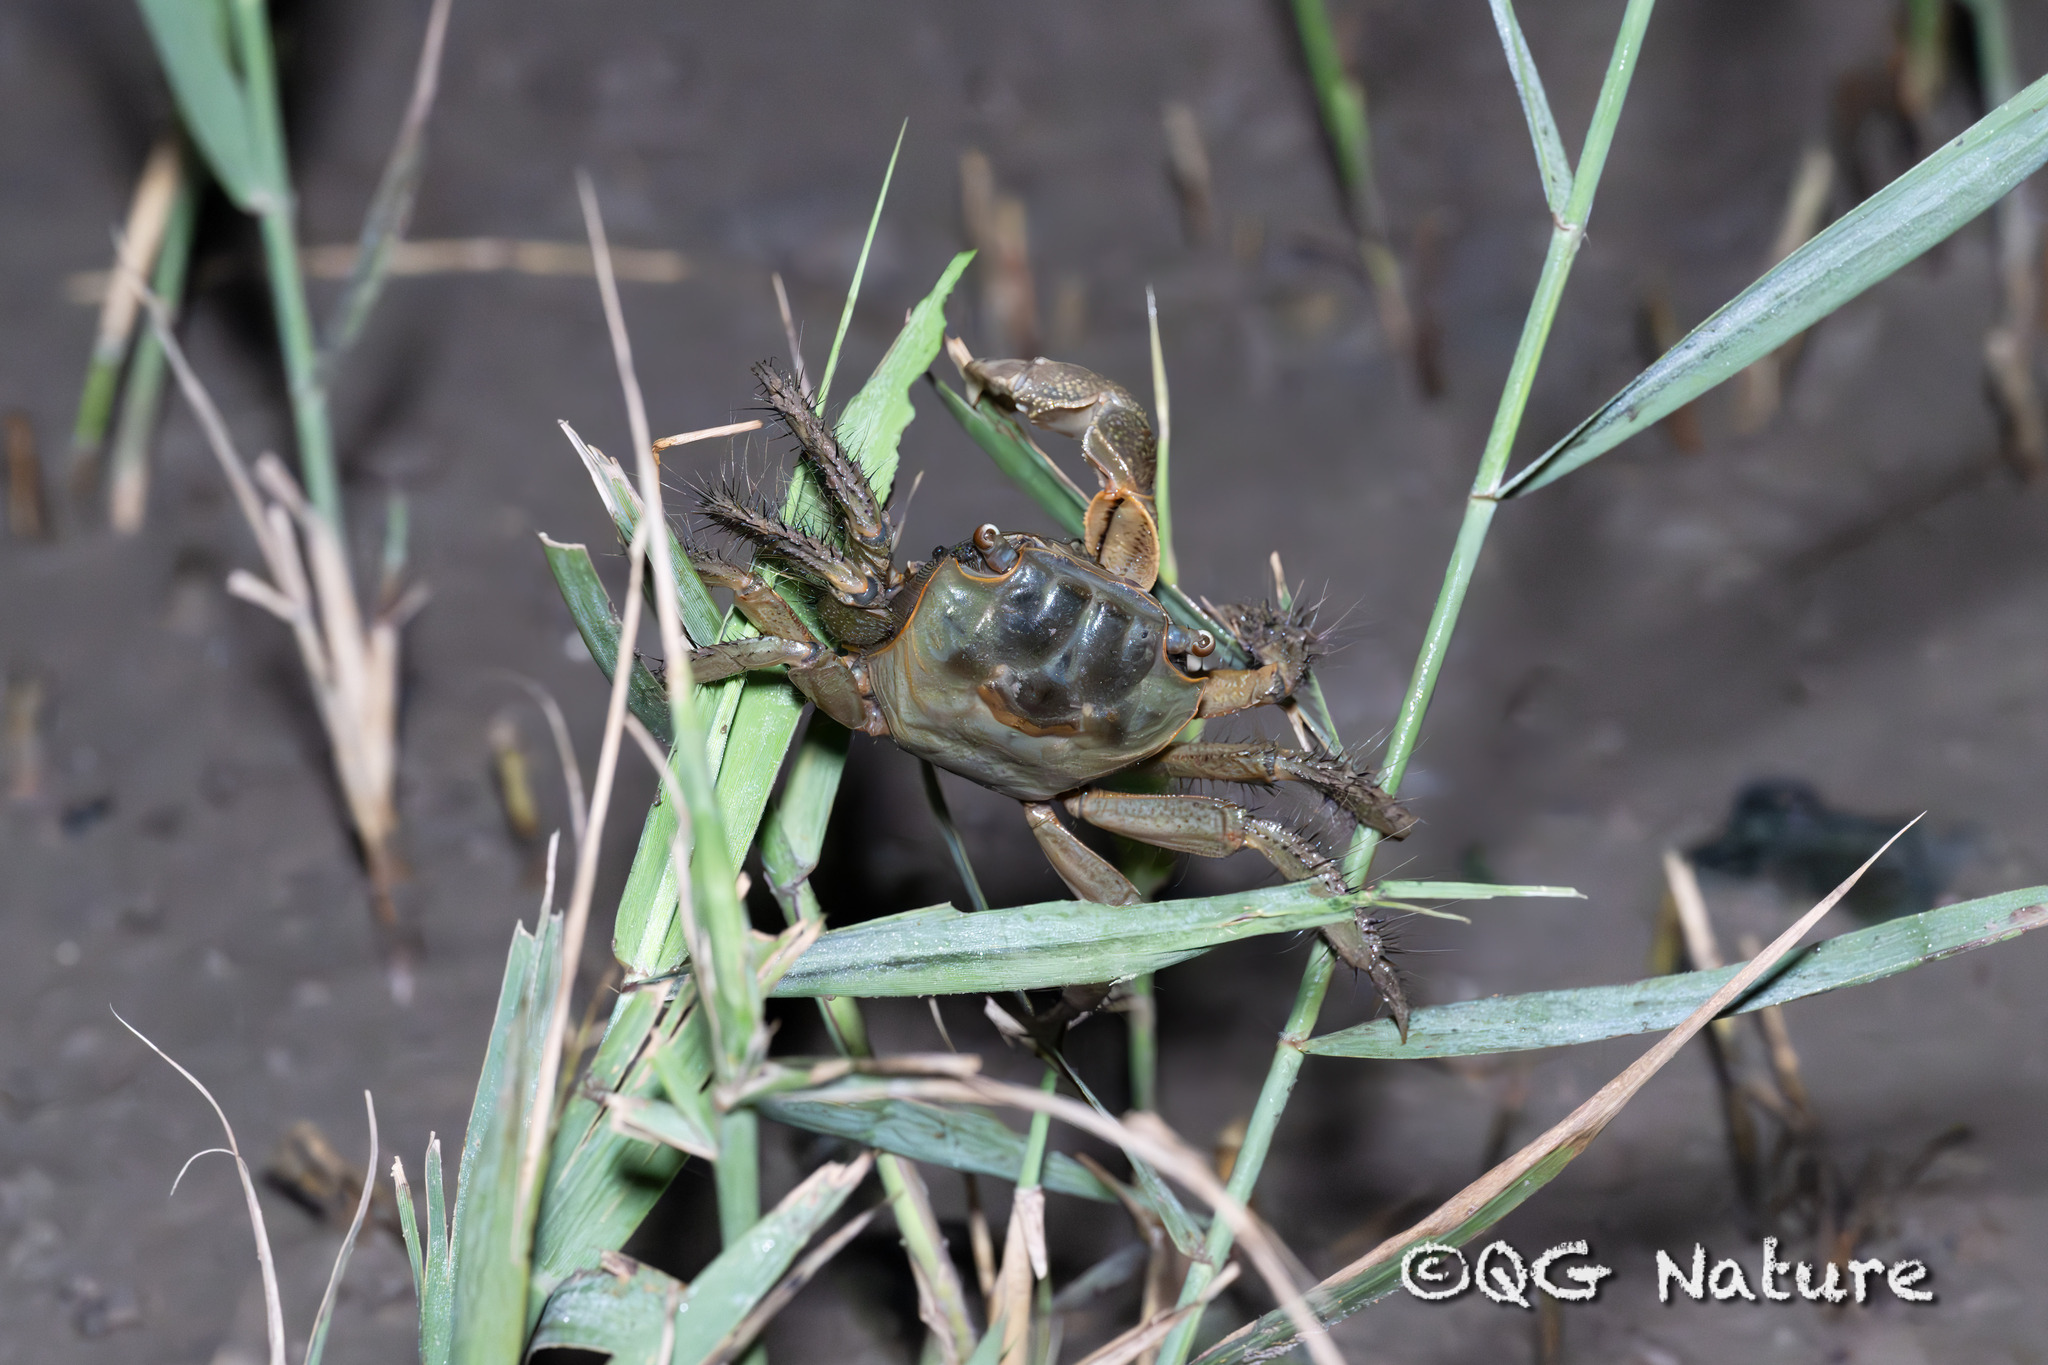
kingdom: Animalia
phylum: Arthropoda
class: Malacostraca
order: Decapoda
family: Sesarmidae
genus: Orisarma
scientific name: Orisarma neglectum
